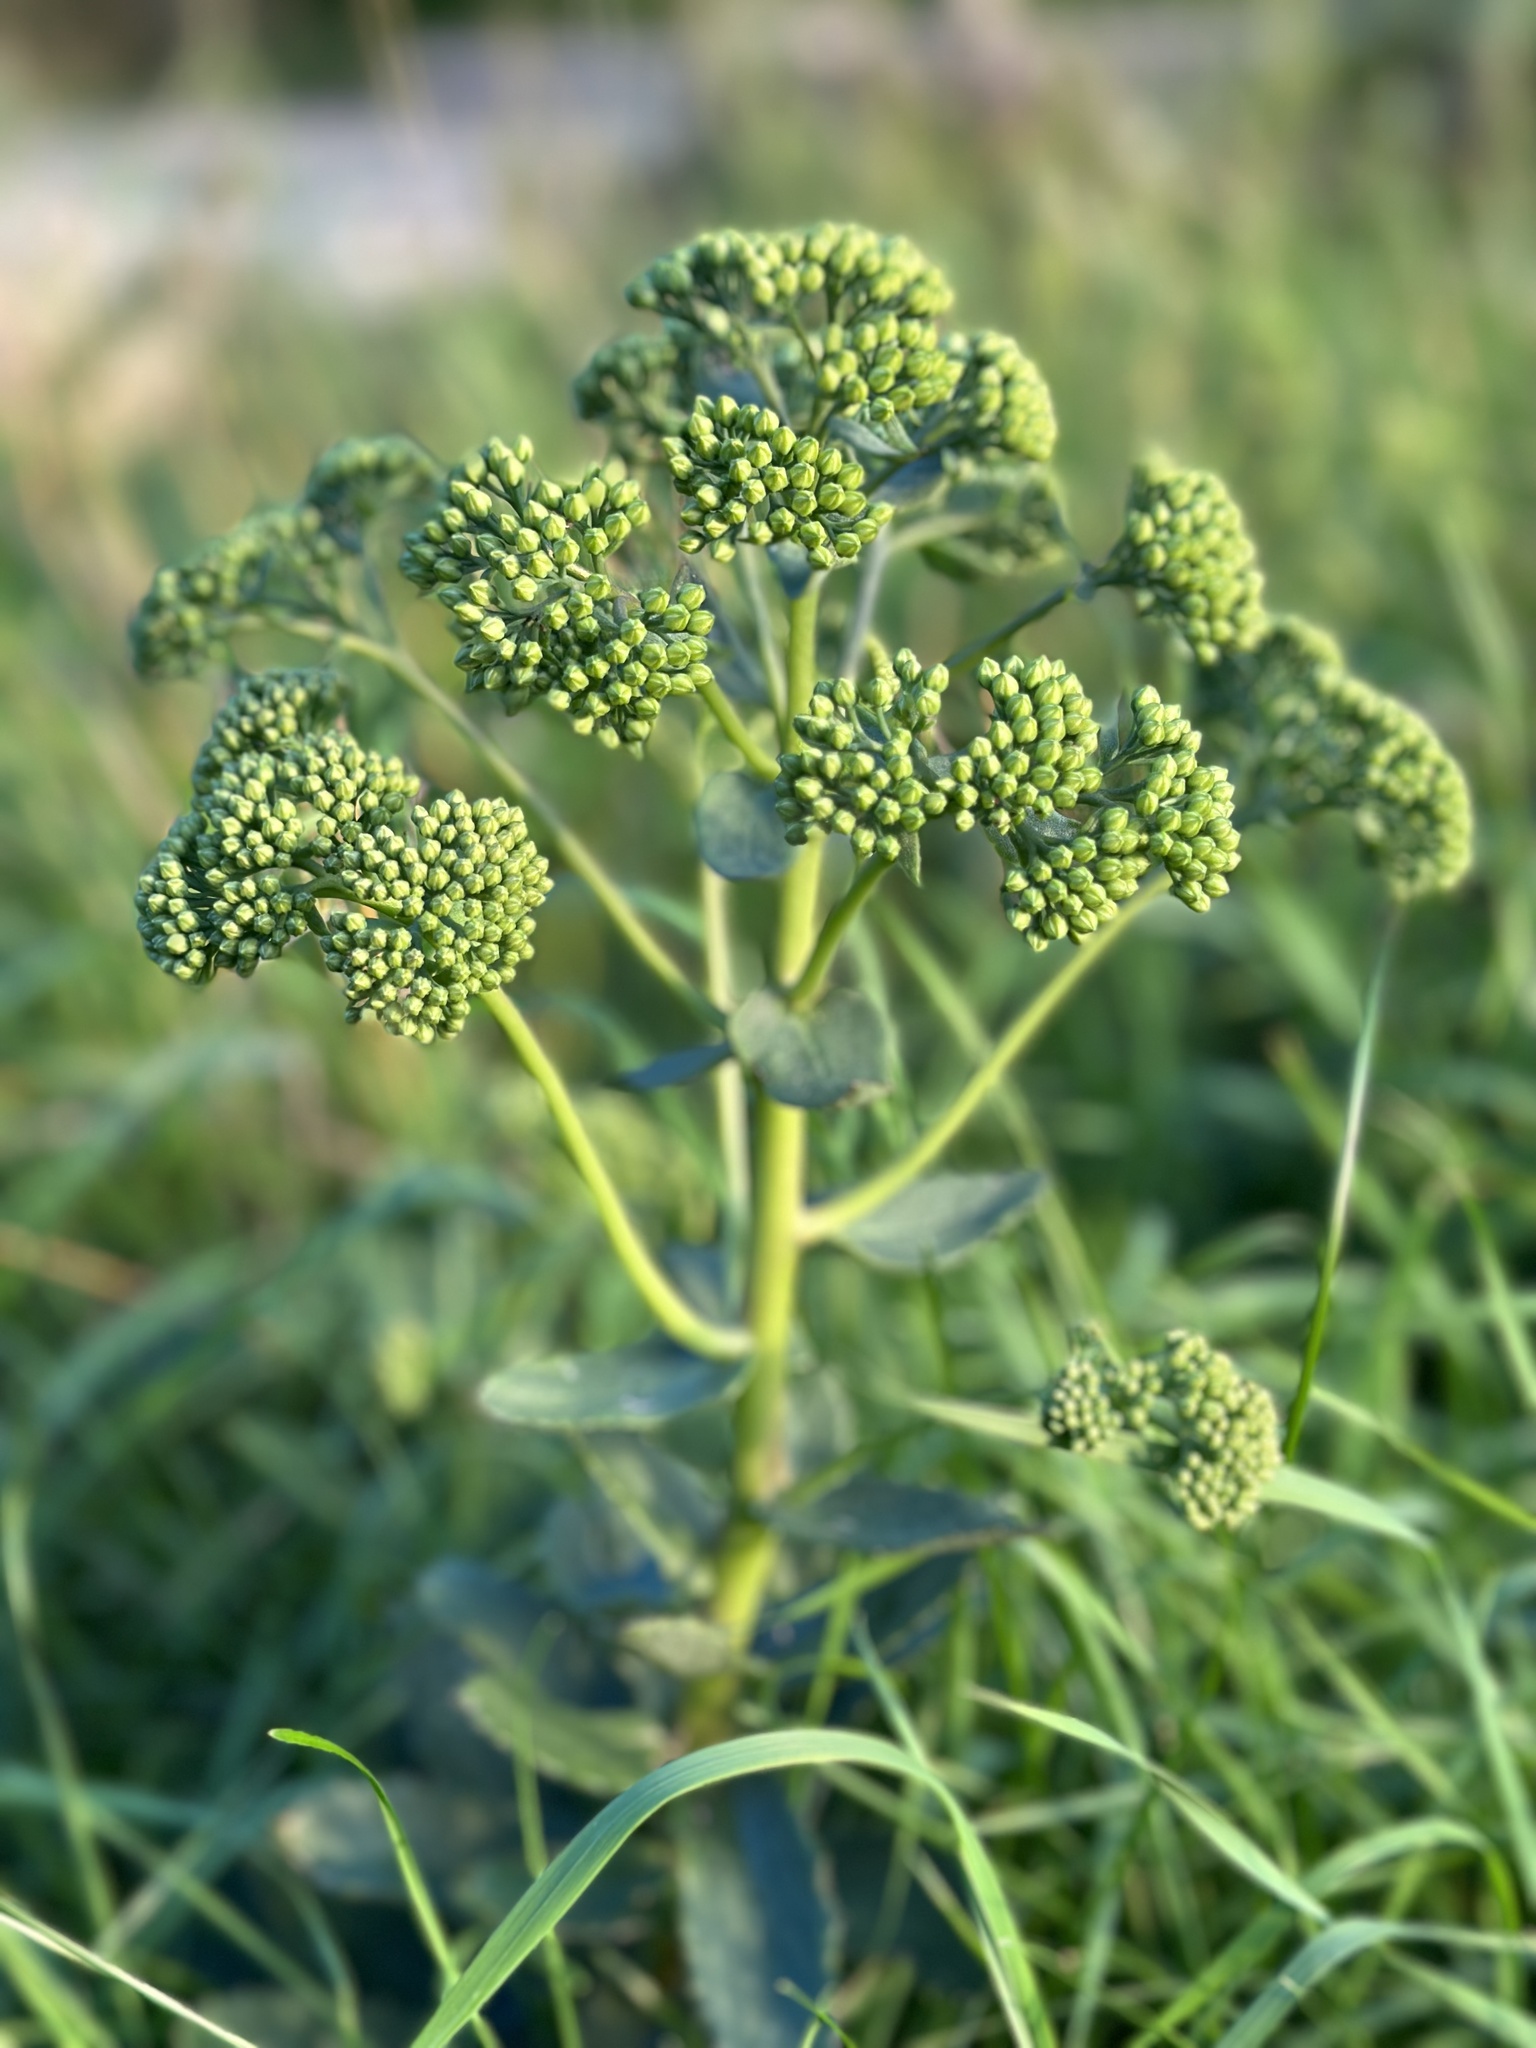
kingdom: Plantae
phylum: Tracheophyta
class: Magnoliopsida
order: Saxifragales
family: Crassulaceae
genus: Hylotelephium
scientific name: Hylotelephium maximum
